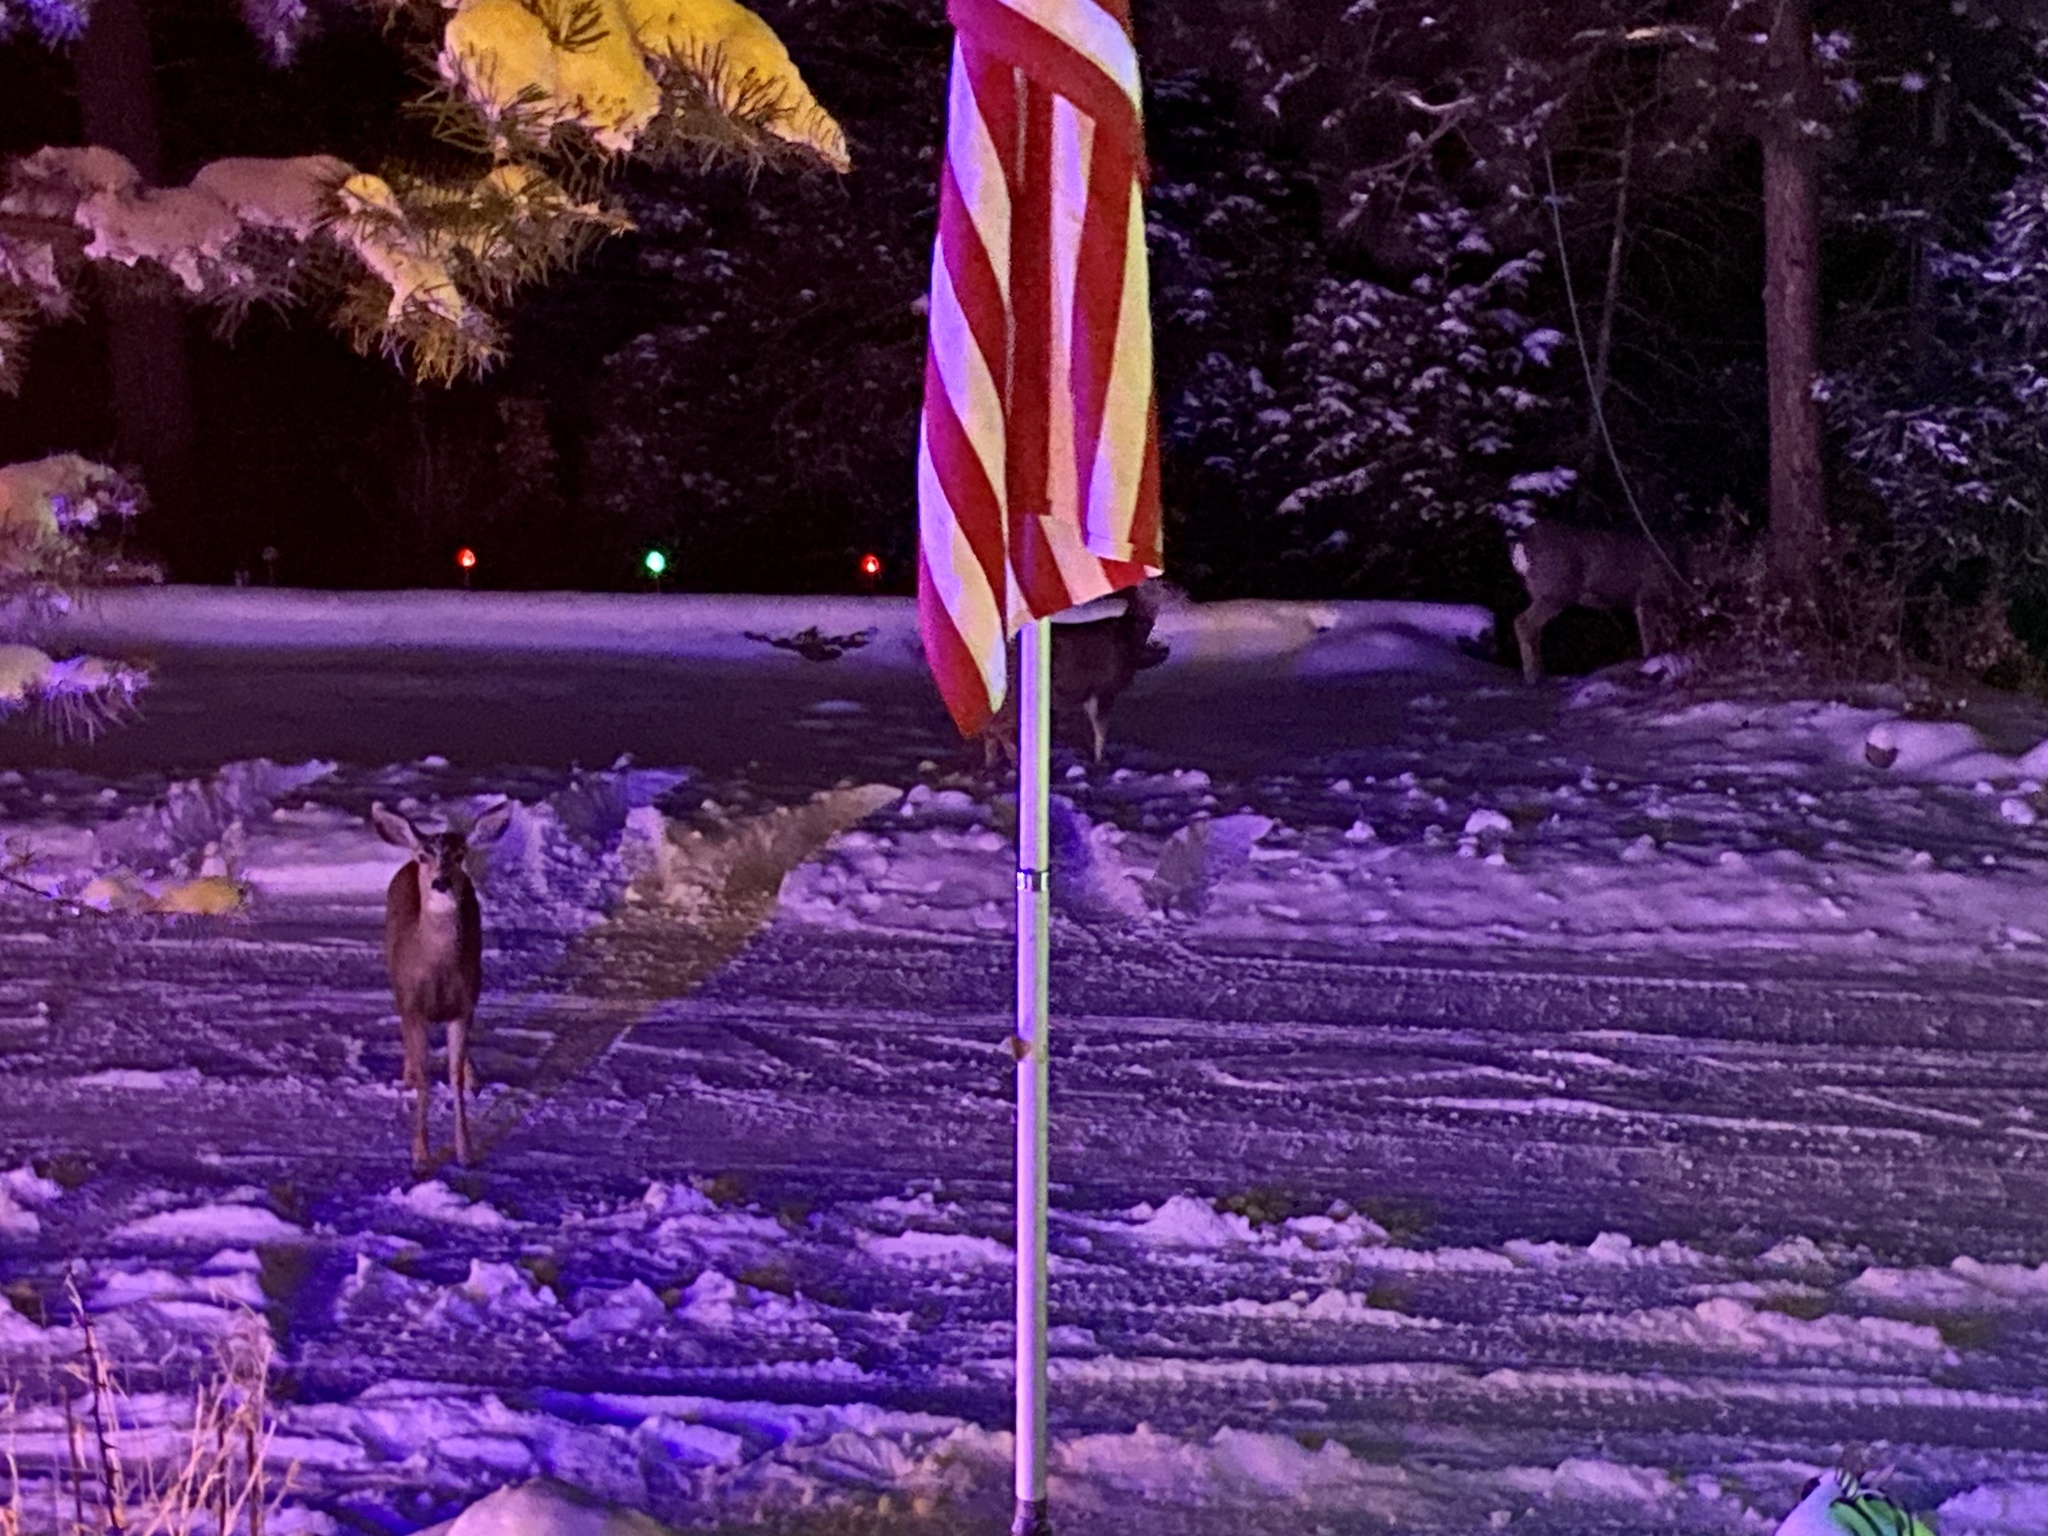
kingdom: Animalia
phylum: Chordata
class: Mammalia
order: Artiodactyla
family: Cervidae
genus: Odocoileus
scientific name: Odocoileus hemionus
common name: Mule deer
